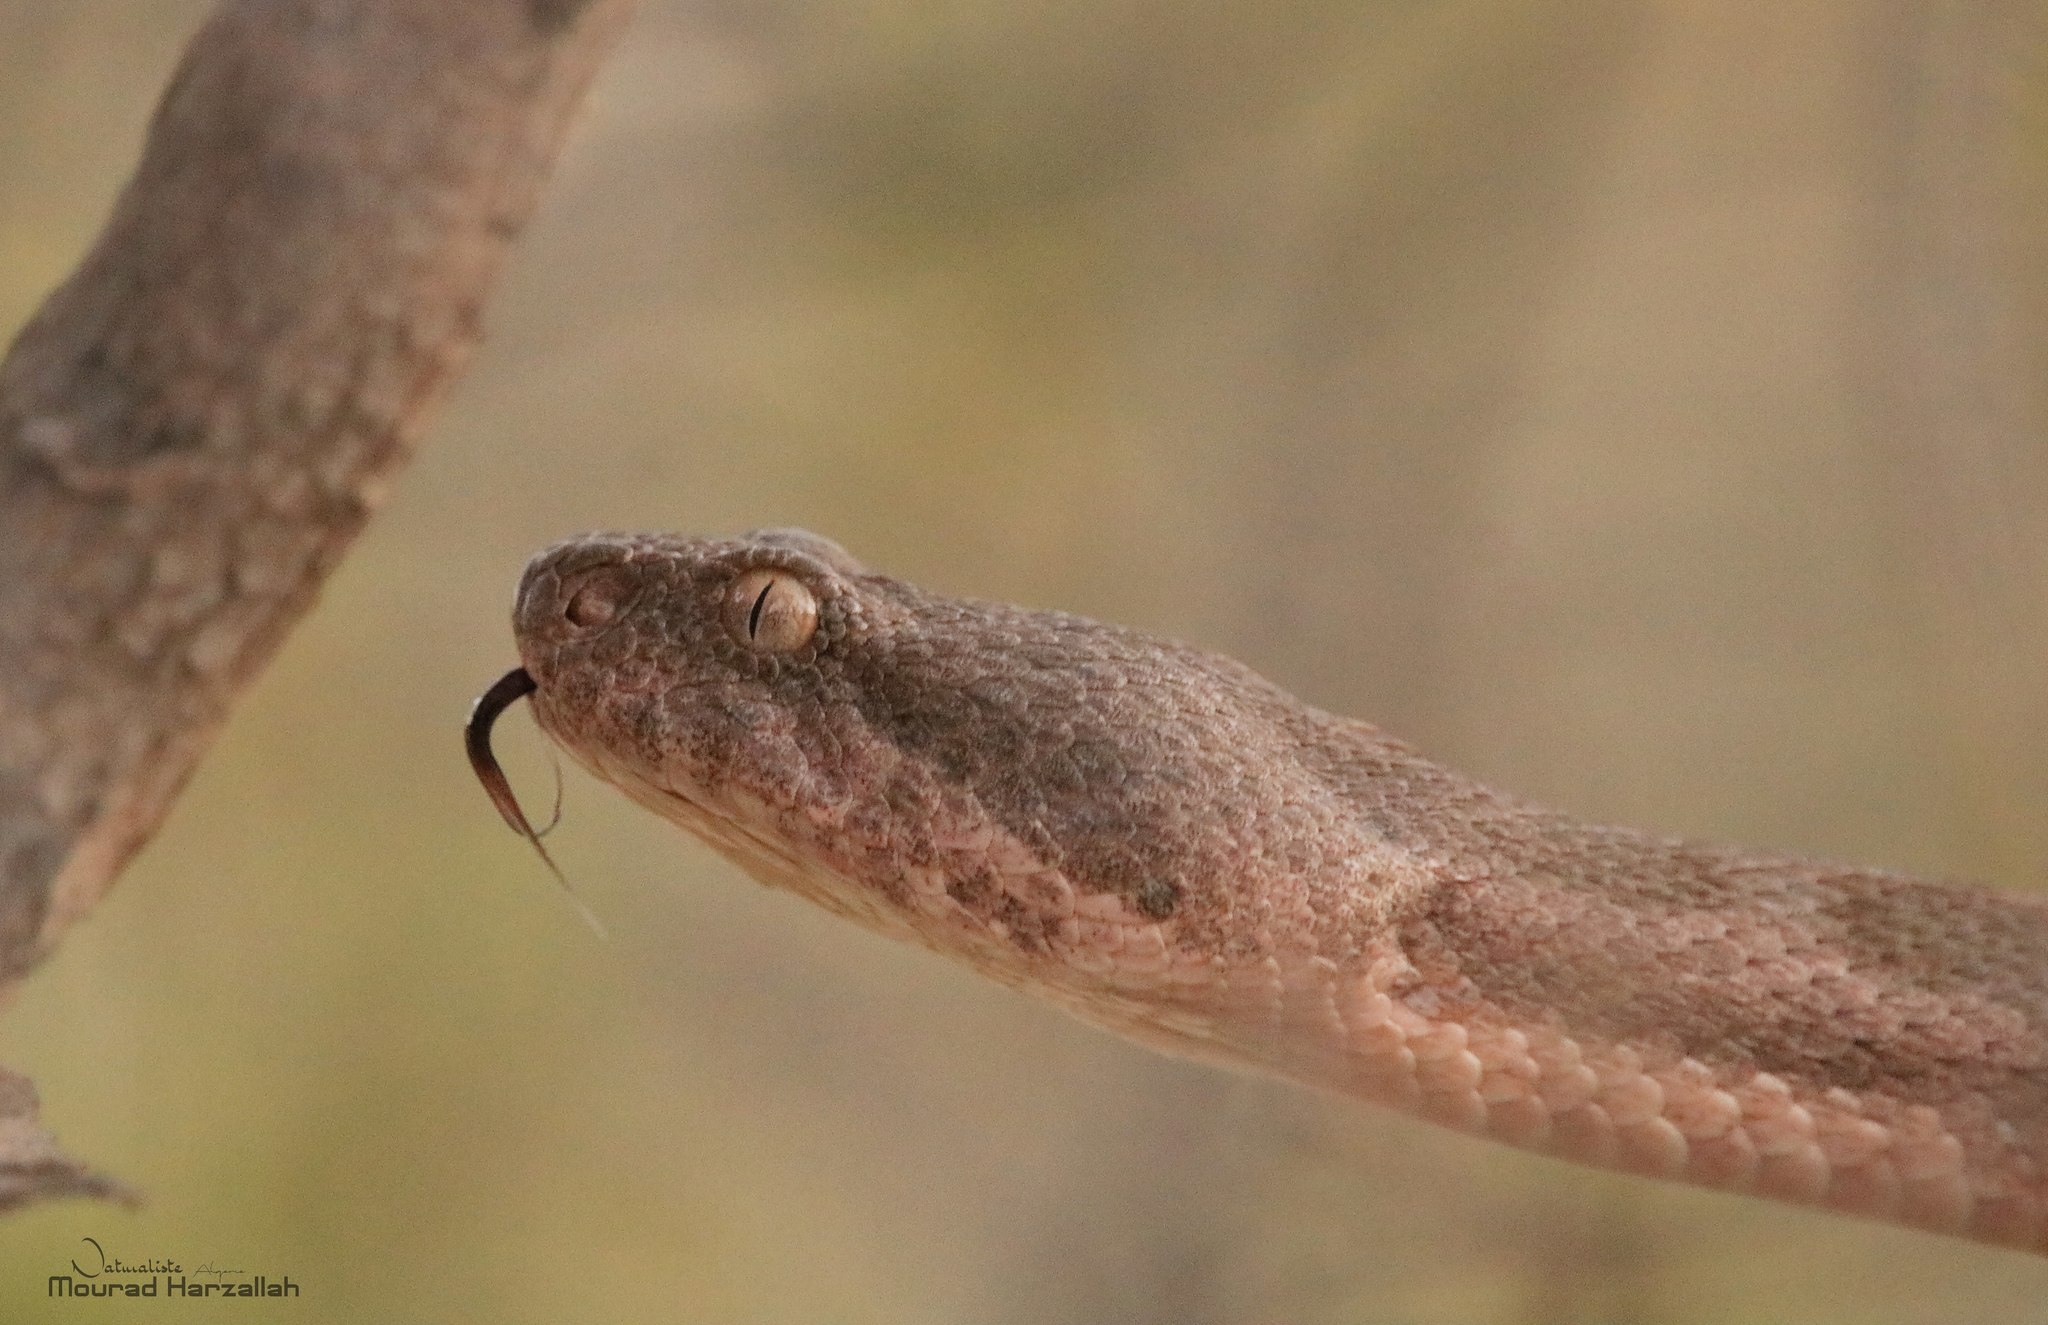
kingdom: Animalia
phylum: Chordata
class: Squamata
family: Viperidae
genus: Daboia
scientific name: Daboia mauritanica
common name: Moorish viper
